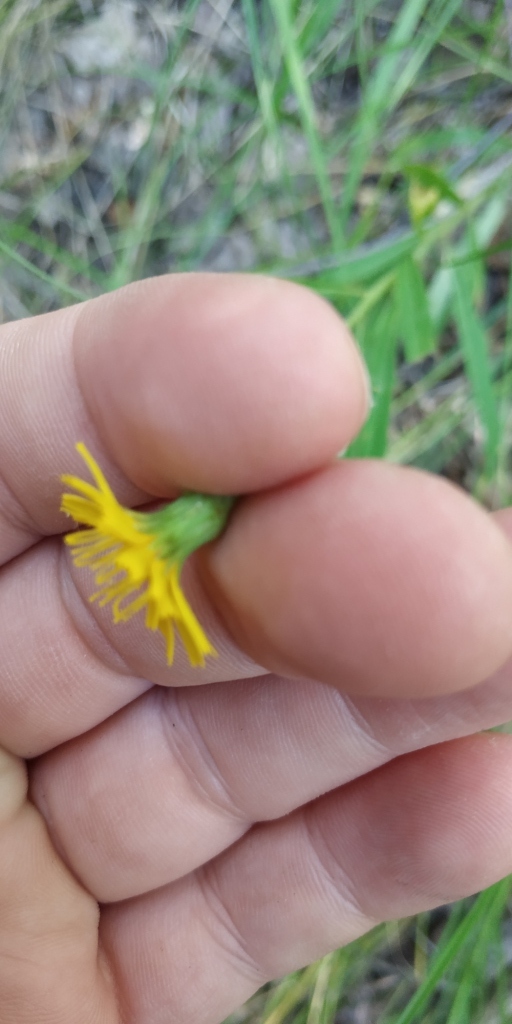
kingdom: Plantae
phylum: Tracheophyta
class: Magnoliopsida
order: Asterales
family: Asteraceae
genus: Hieracium
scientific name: Hieracium umbellatum
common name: Northern hawkweed
